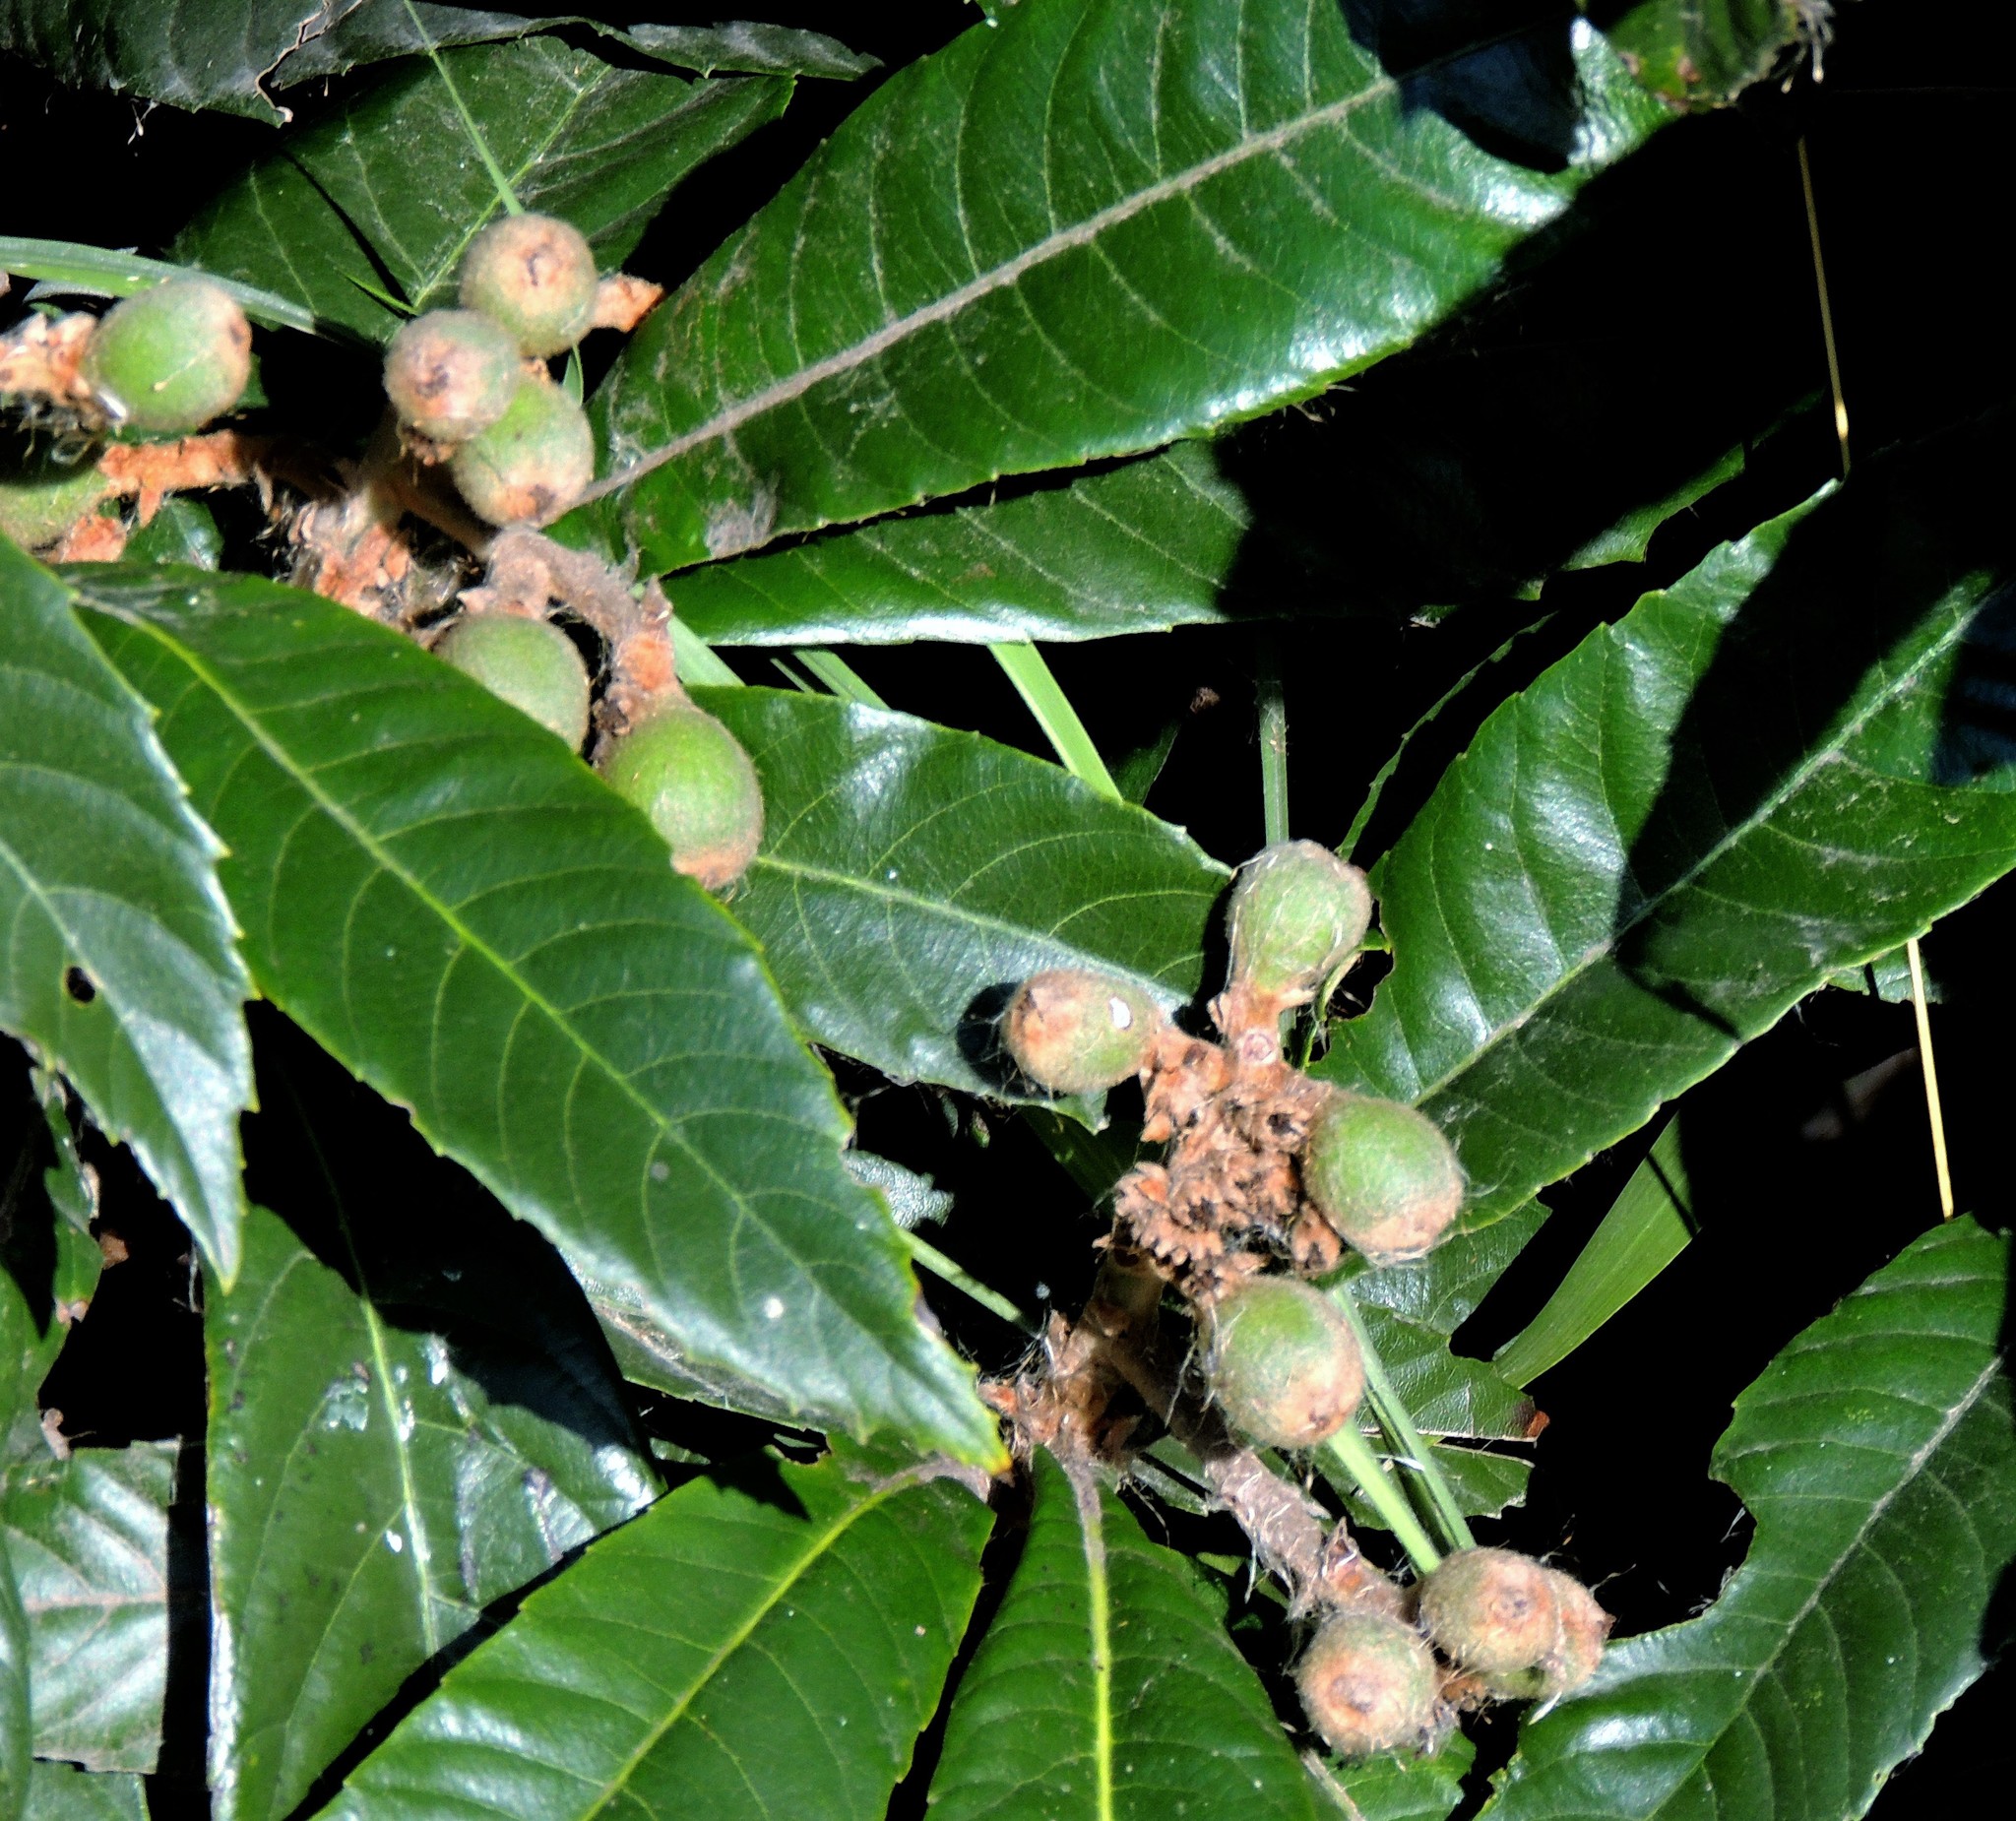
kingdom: Plantae
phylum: Tracheophyta
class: Magnoliopsida
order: Rosales
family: Rosaceae
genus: Rhaphiolepis
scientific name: Rhaphiolepis bibas
